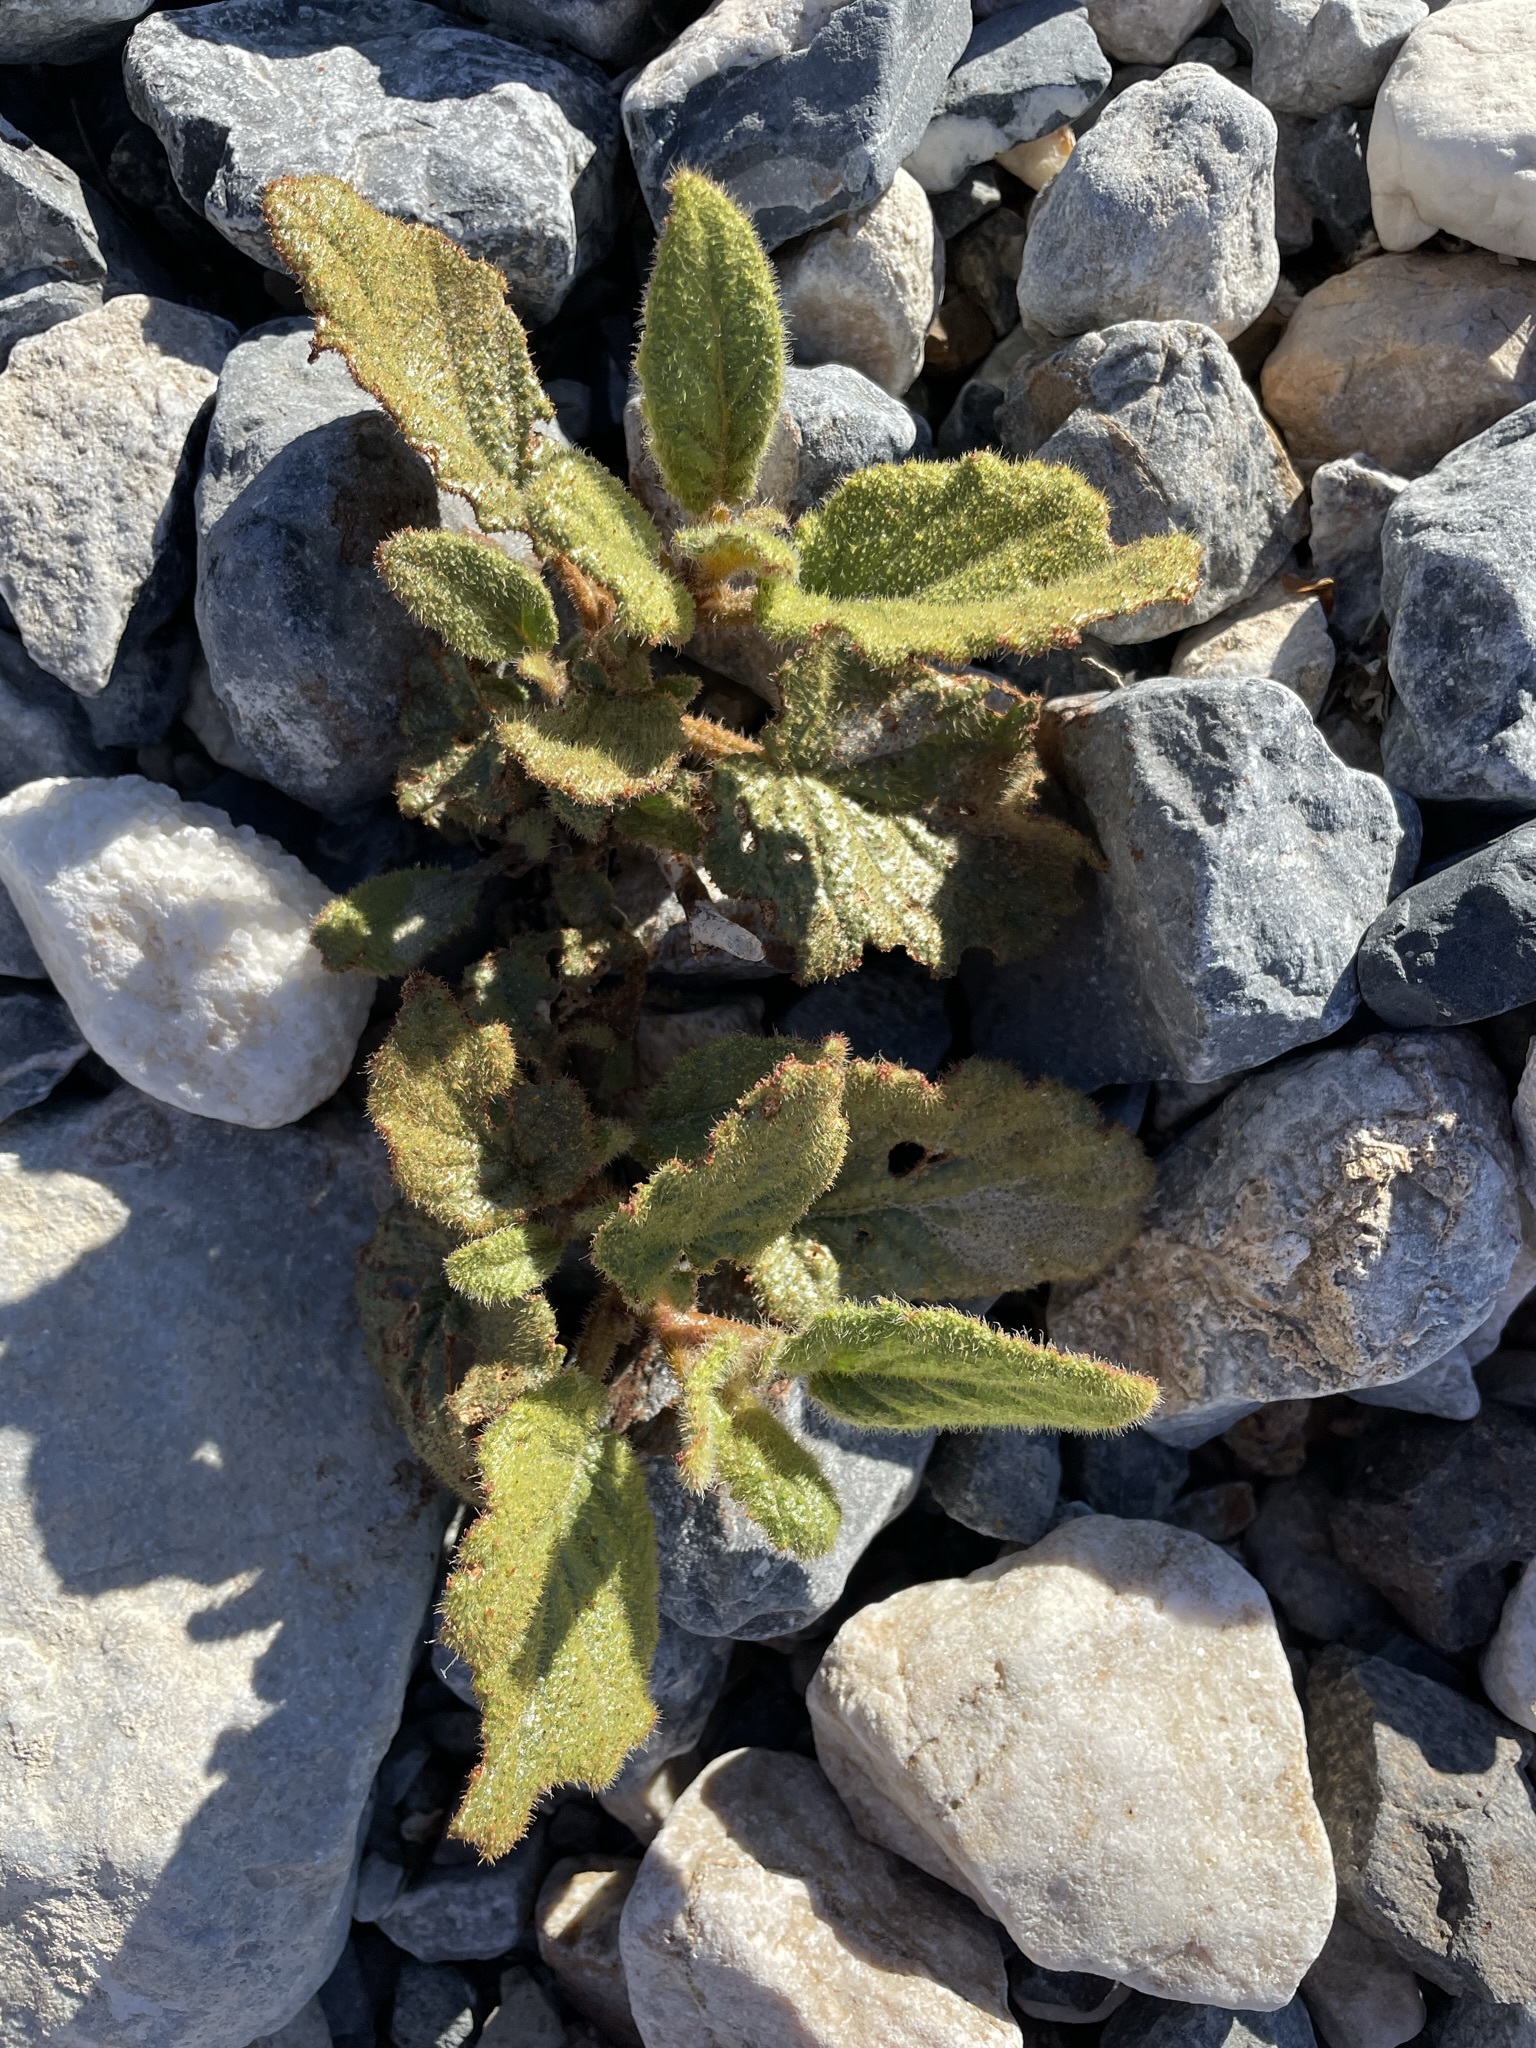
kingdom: Plantae
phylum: Tracheophyta
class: Magnoliopsida
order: Caryophyllales
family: Nyctaginaceae
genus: Anulocaulis
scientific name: Anulocaulis annulatus
